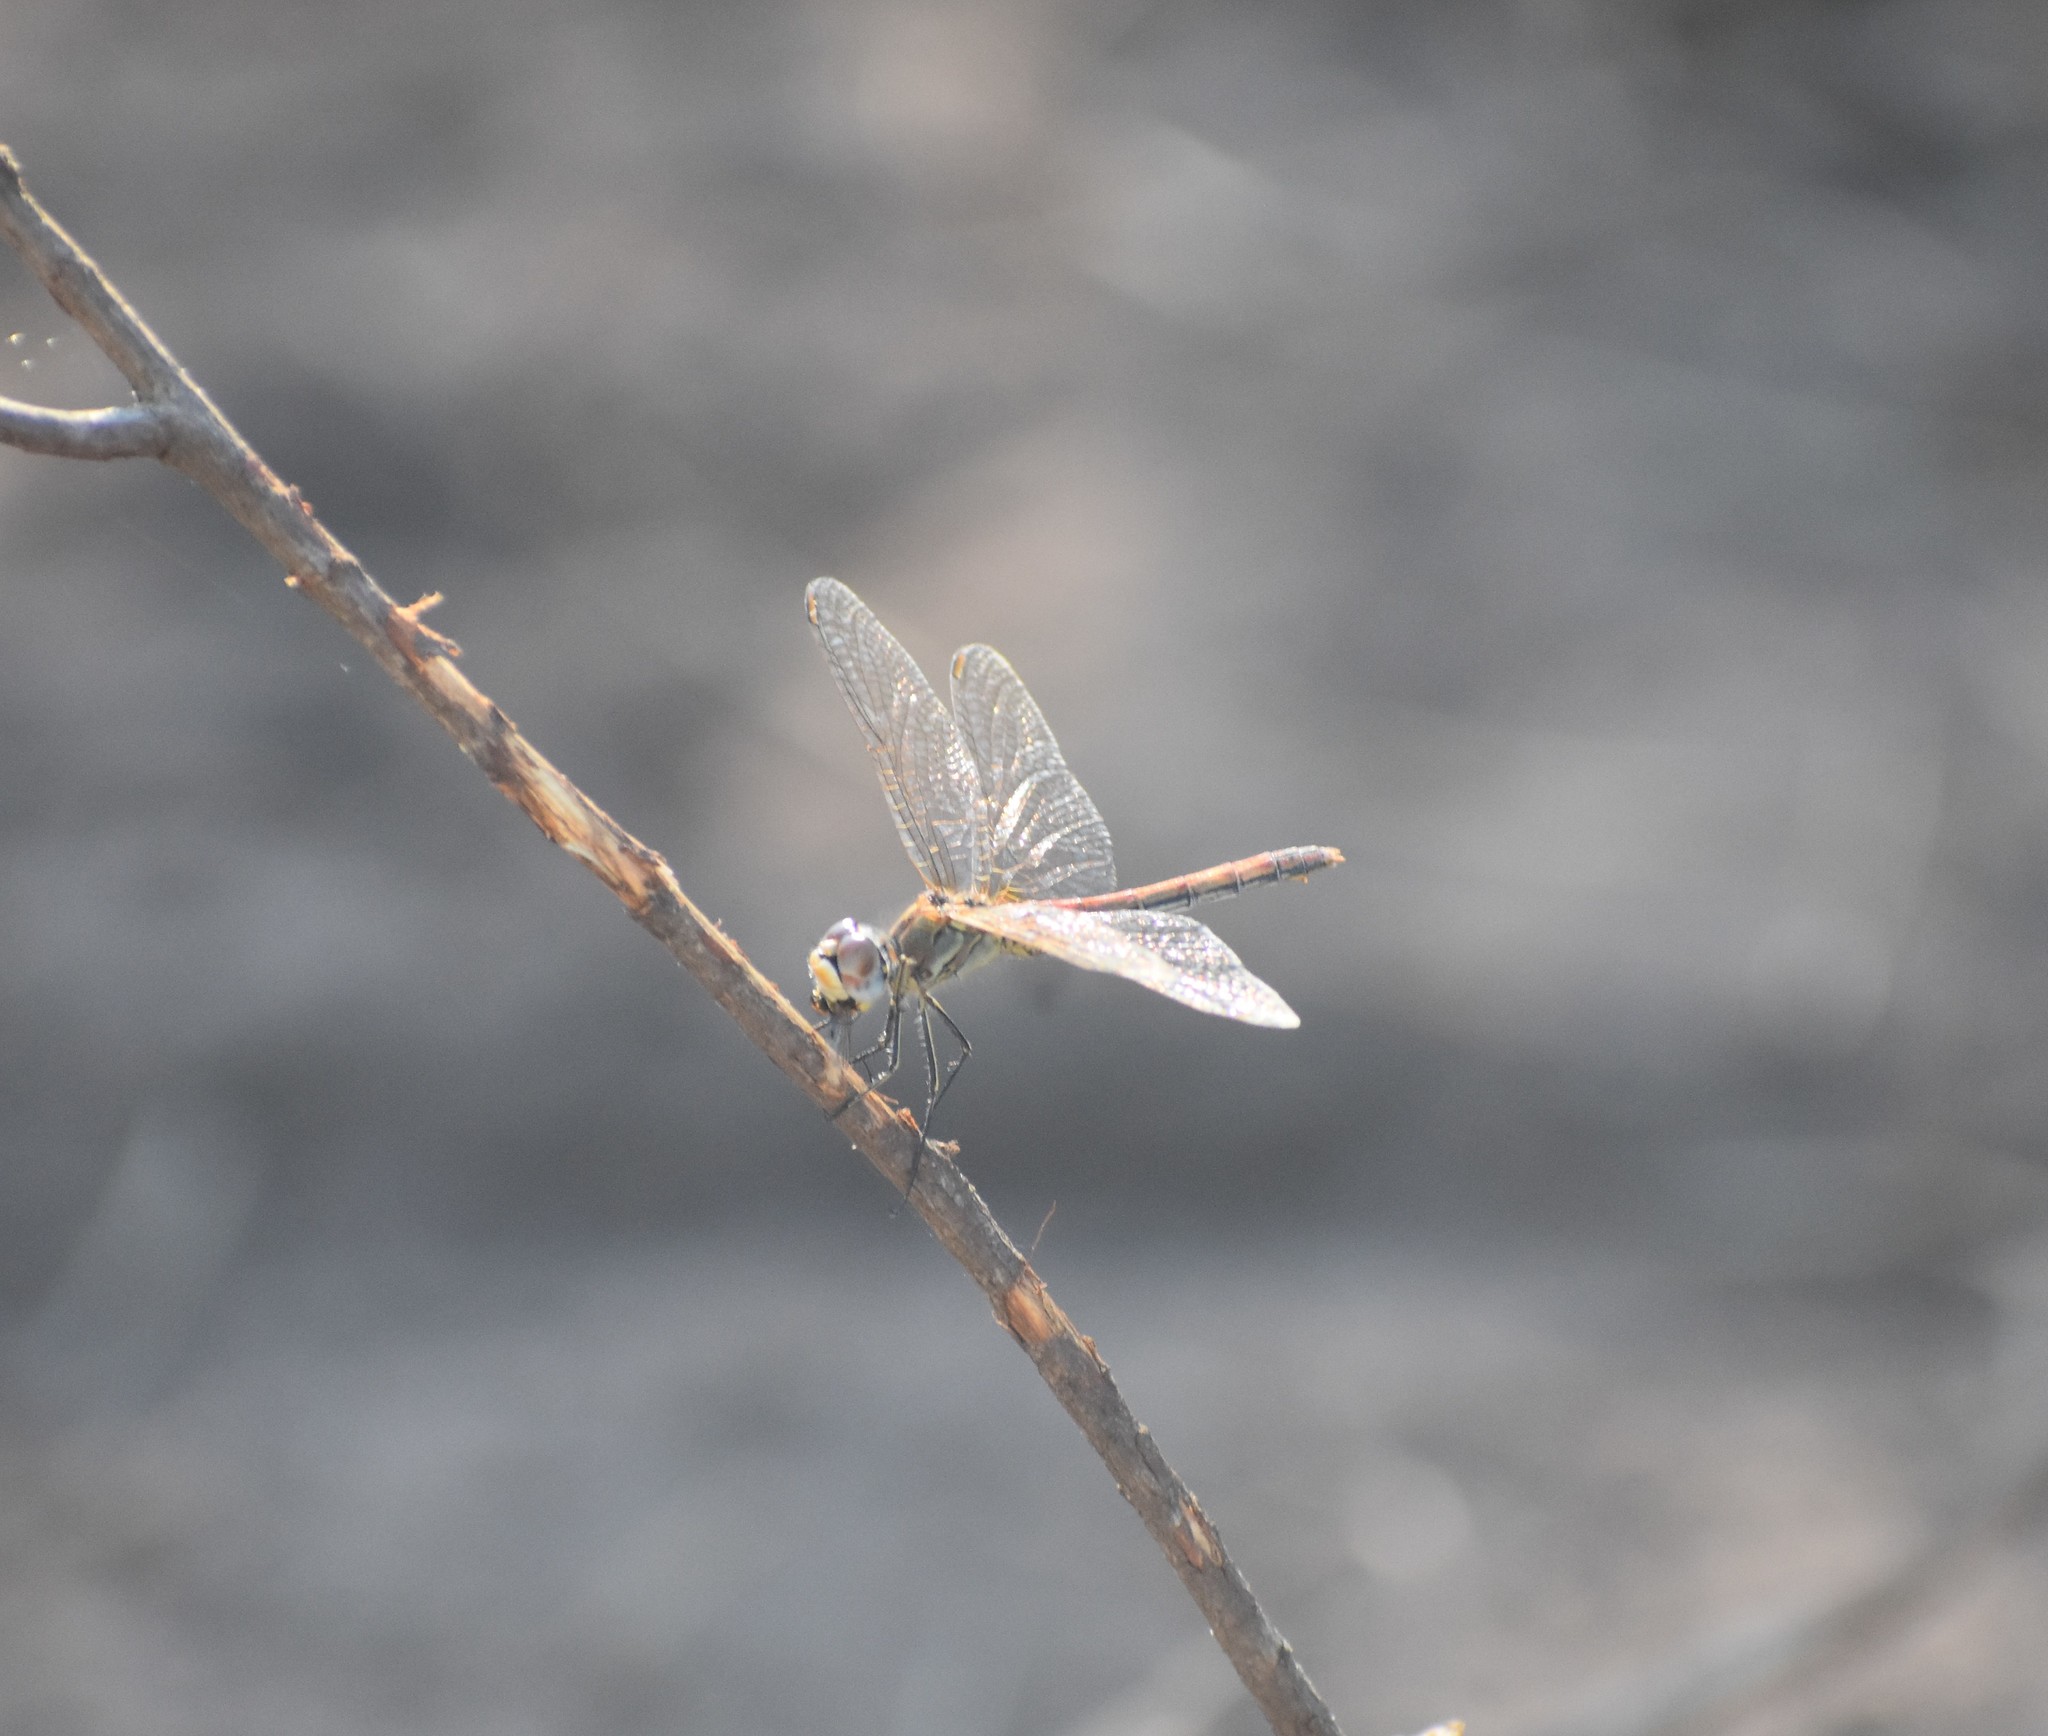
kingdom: Animalia
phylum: Arthropoda
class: Insecta
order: Odonata
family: Libellulidae
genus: Sympetrum
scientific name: Sympetrum fonscolombii
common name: Red-veined darter
